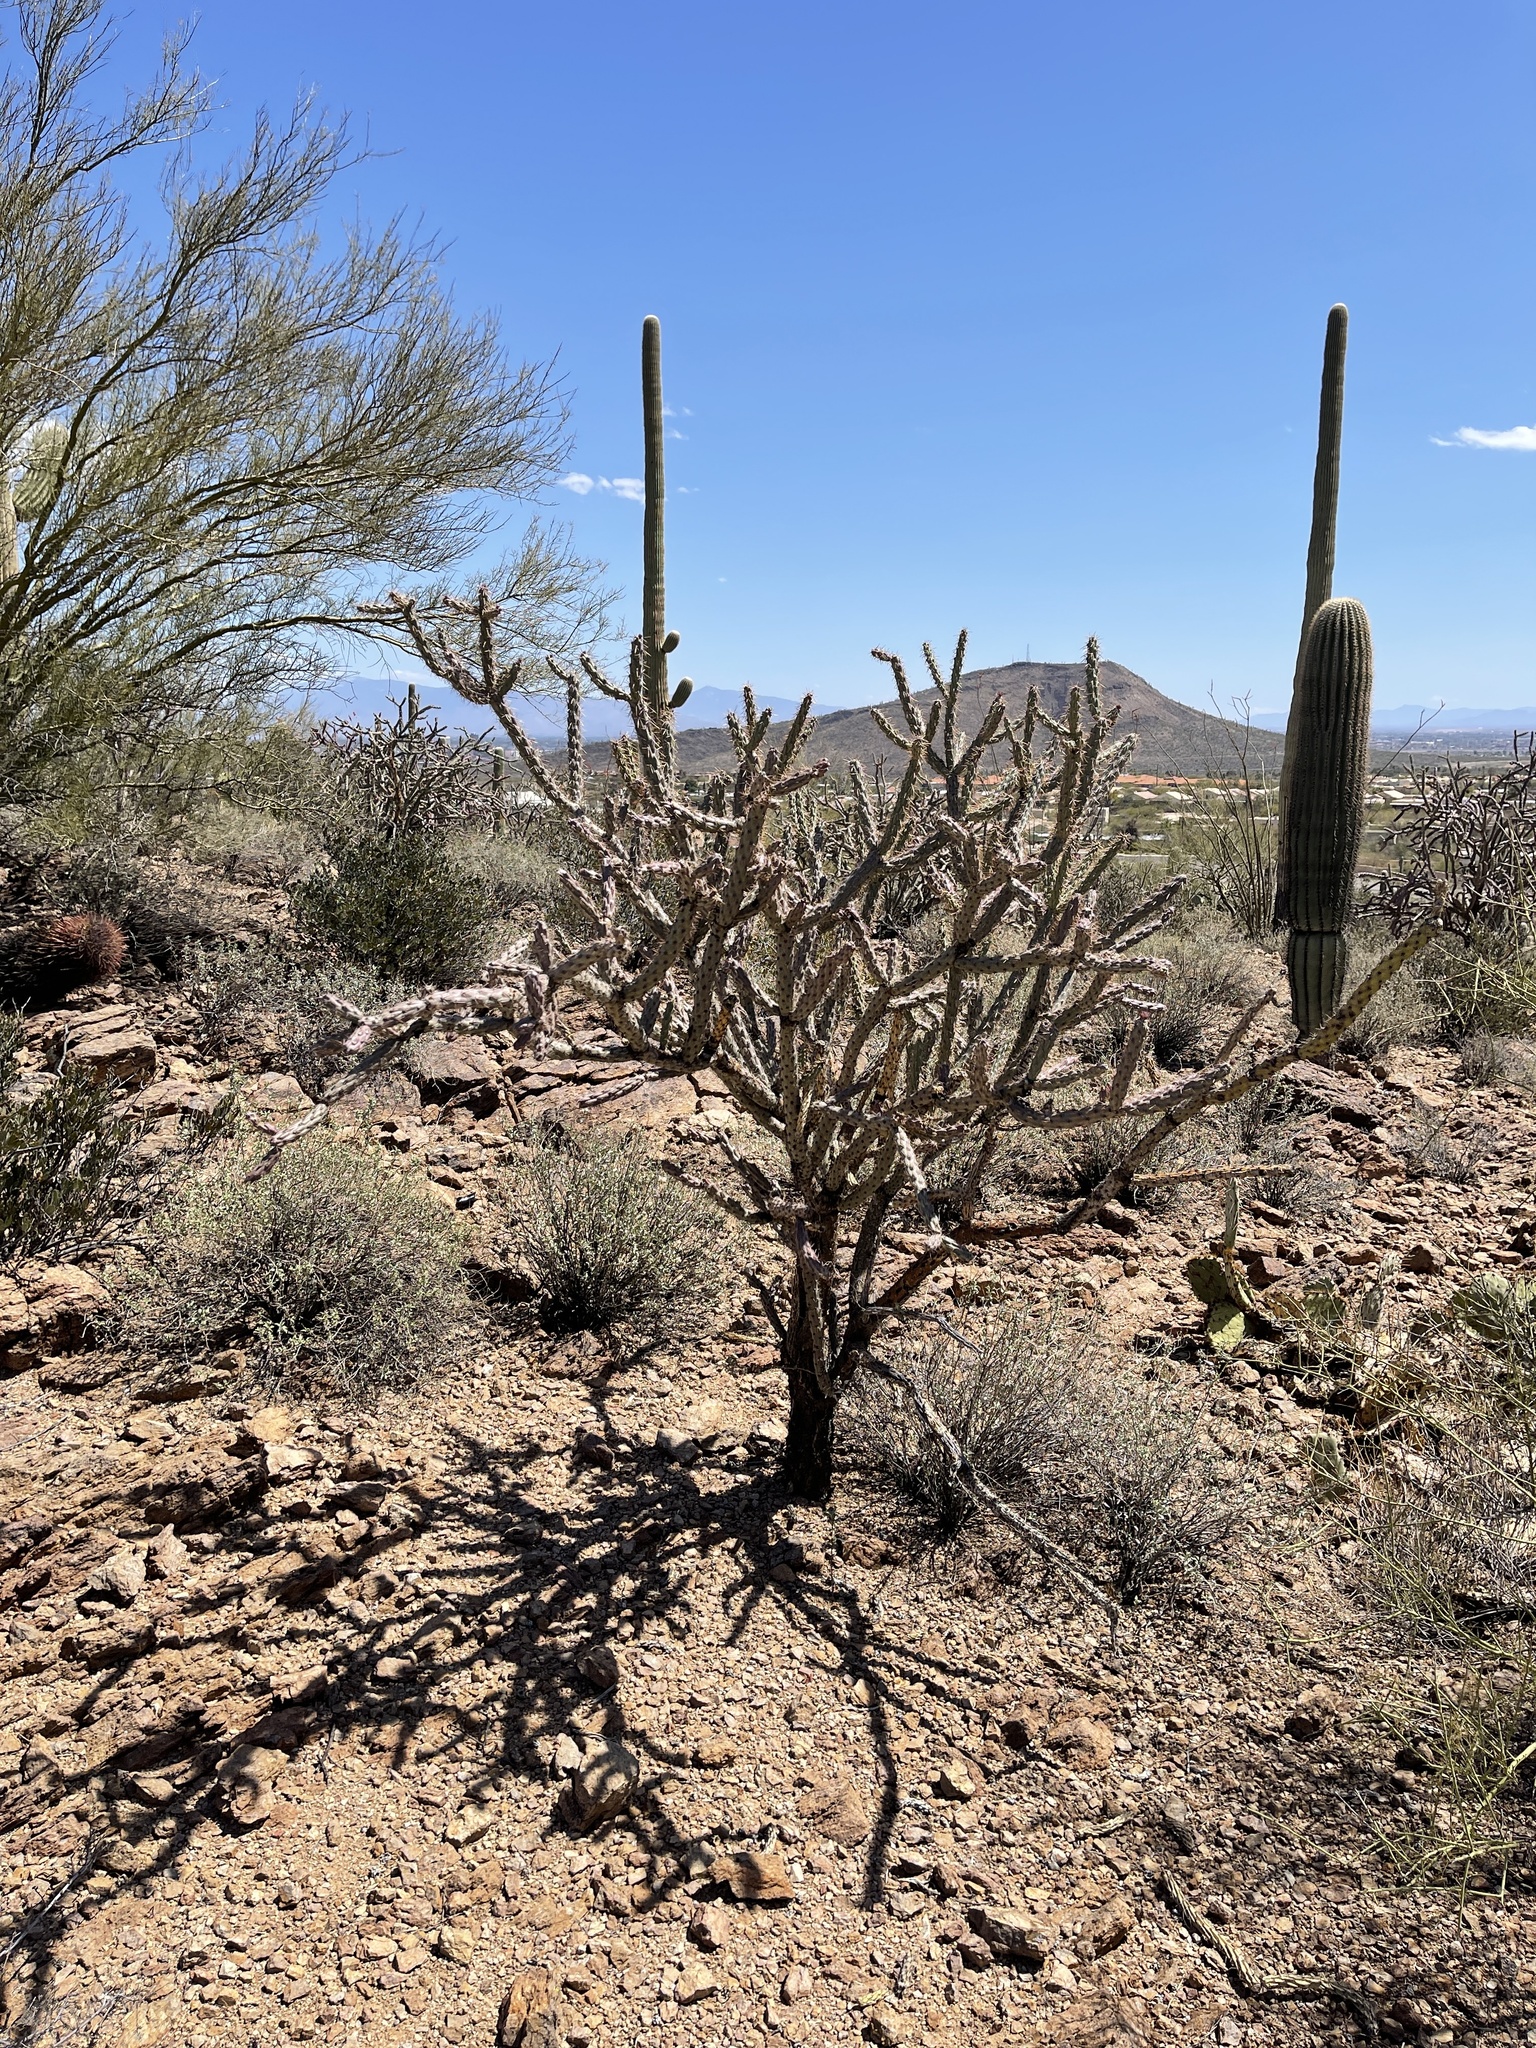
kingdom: Plantae
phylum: Tracheophyta
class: Magnoliopsida
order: Caryophyllales
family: Cactaceae
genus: Cylindropuntia
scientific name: Cylindropuntia acanthocarpa
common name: Buckhorn cholla
